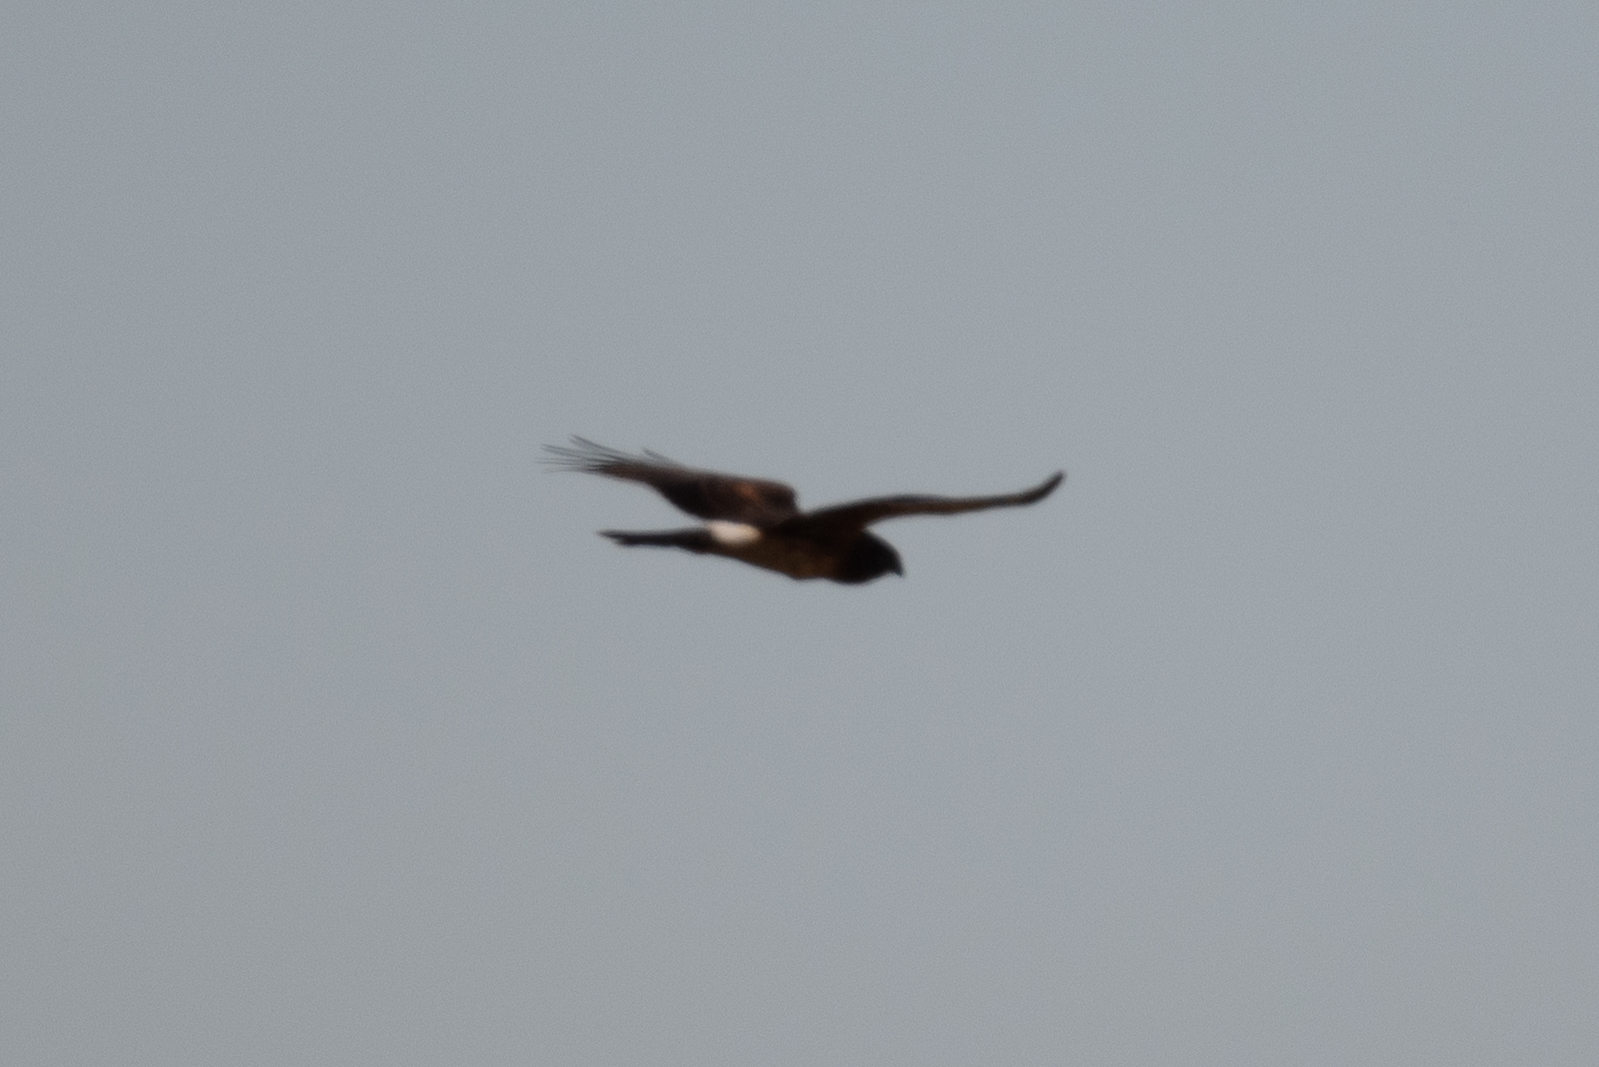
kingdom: Animalia
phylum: Chordata
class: Aves
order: Accipitriformes
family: Accipitridae
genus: Circus
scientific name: Circus cyaneus
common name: Hen harrier
